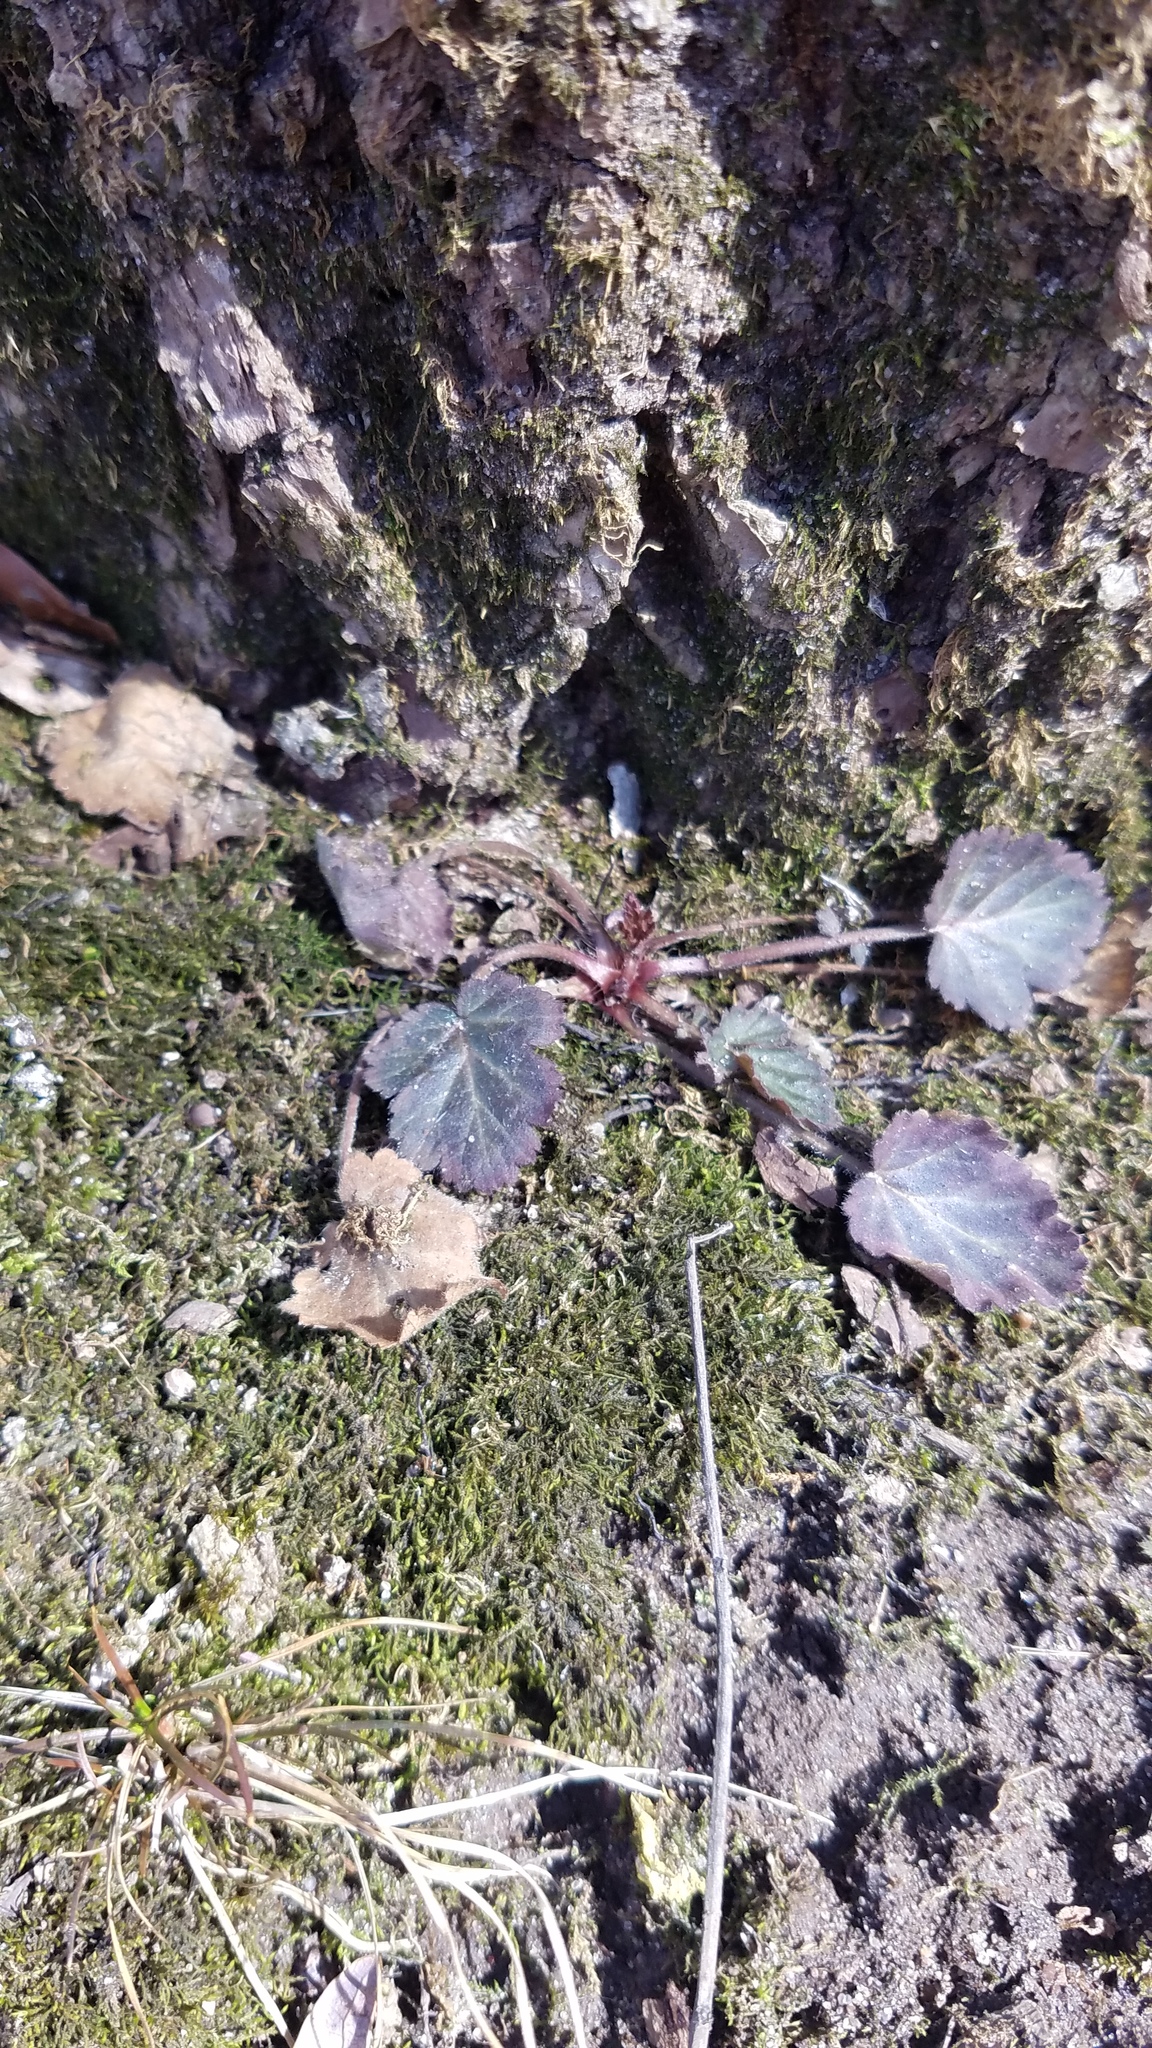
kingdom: Plantae
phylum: Tracheophyta
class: Magnoliopsida
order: Rosales
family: Rosaceae
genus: Geum
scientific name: Geum canadense
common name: White avens
